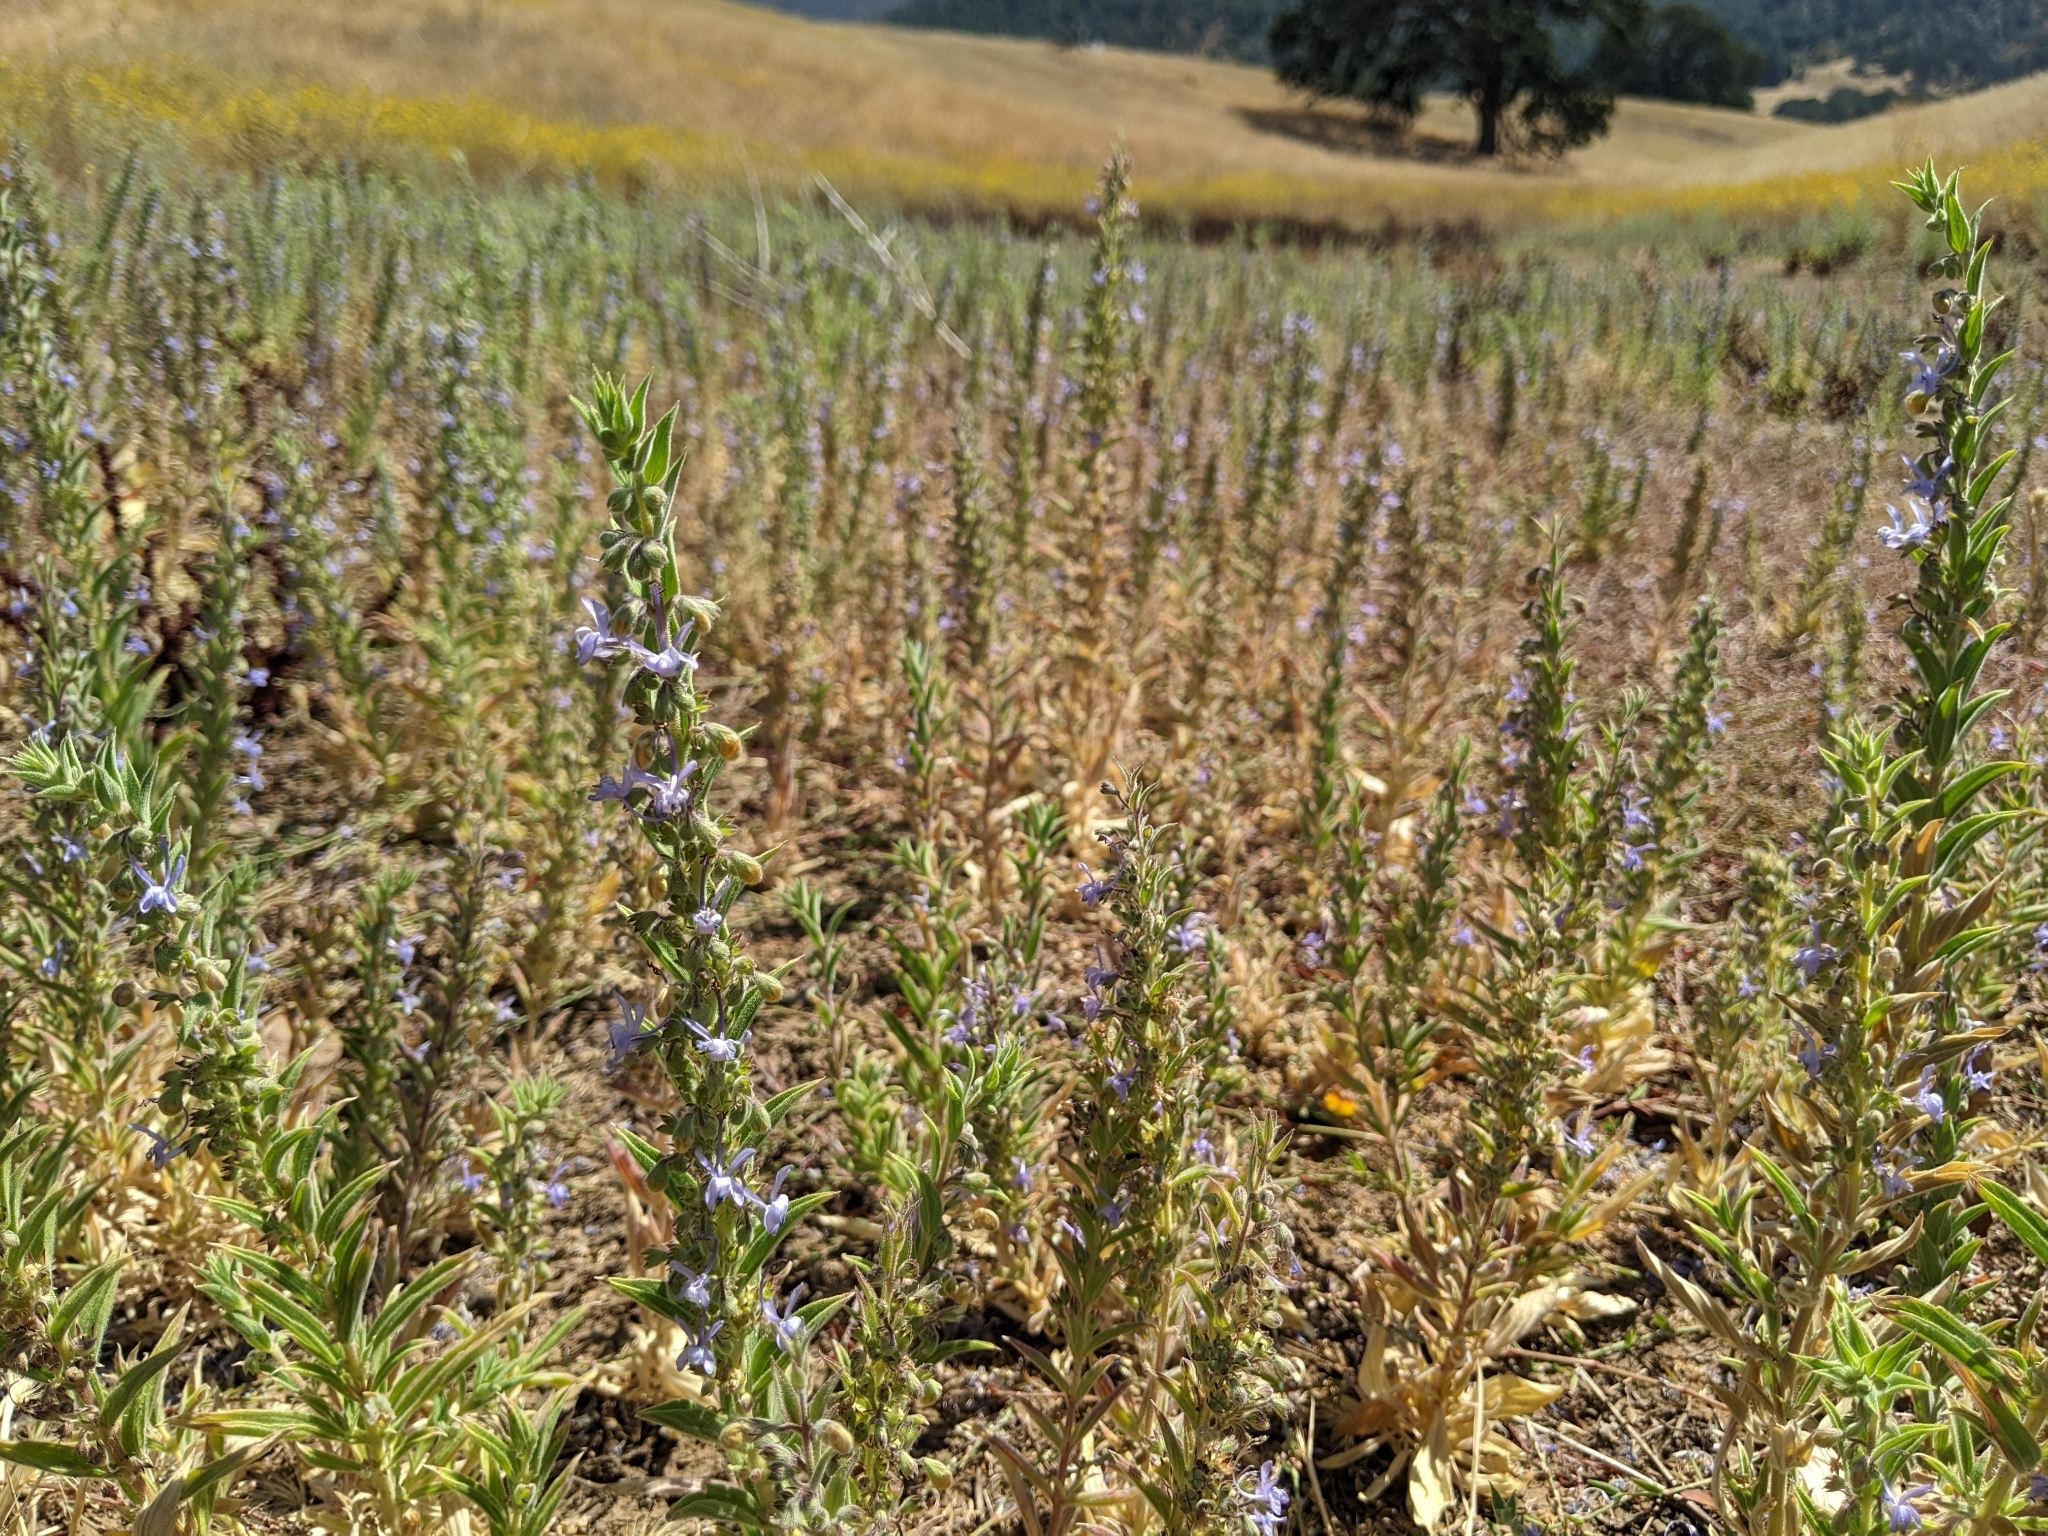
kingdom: Plantae
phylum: Tracheophyta
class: Magnoliopsida
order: Lamiales
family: Lamiaceae
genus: Trichostema
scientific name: Trichostema lanceolatum
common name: Vinegar-weed
